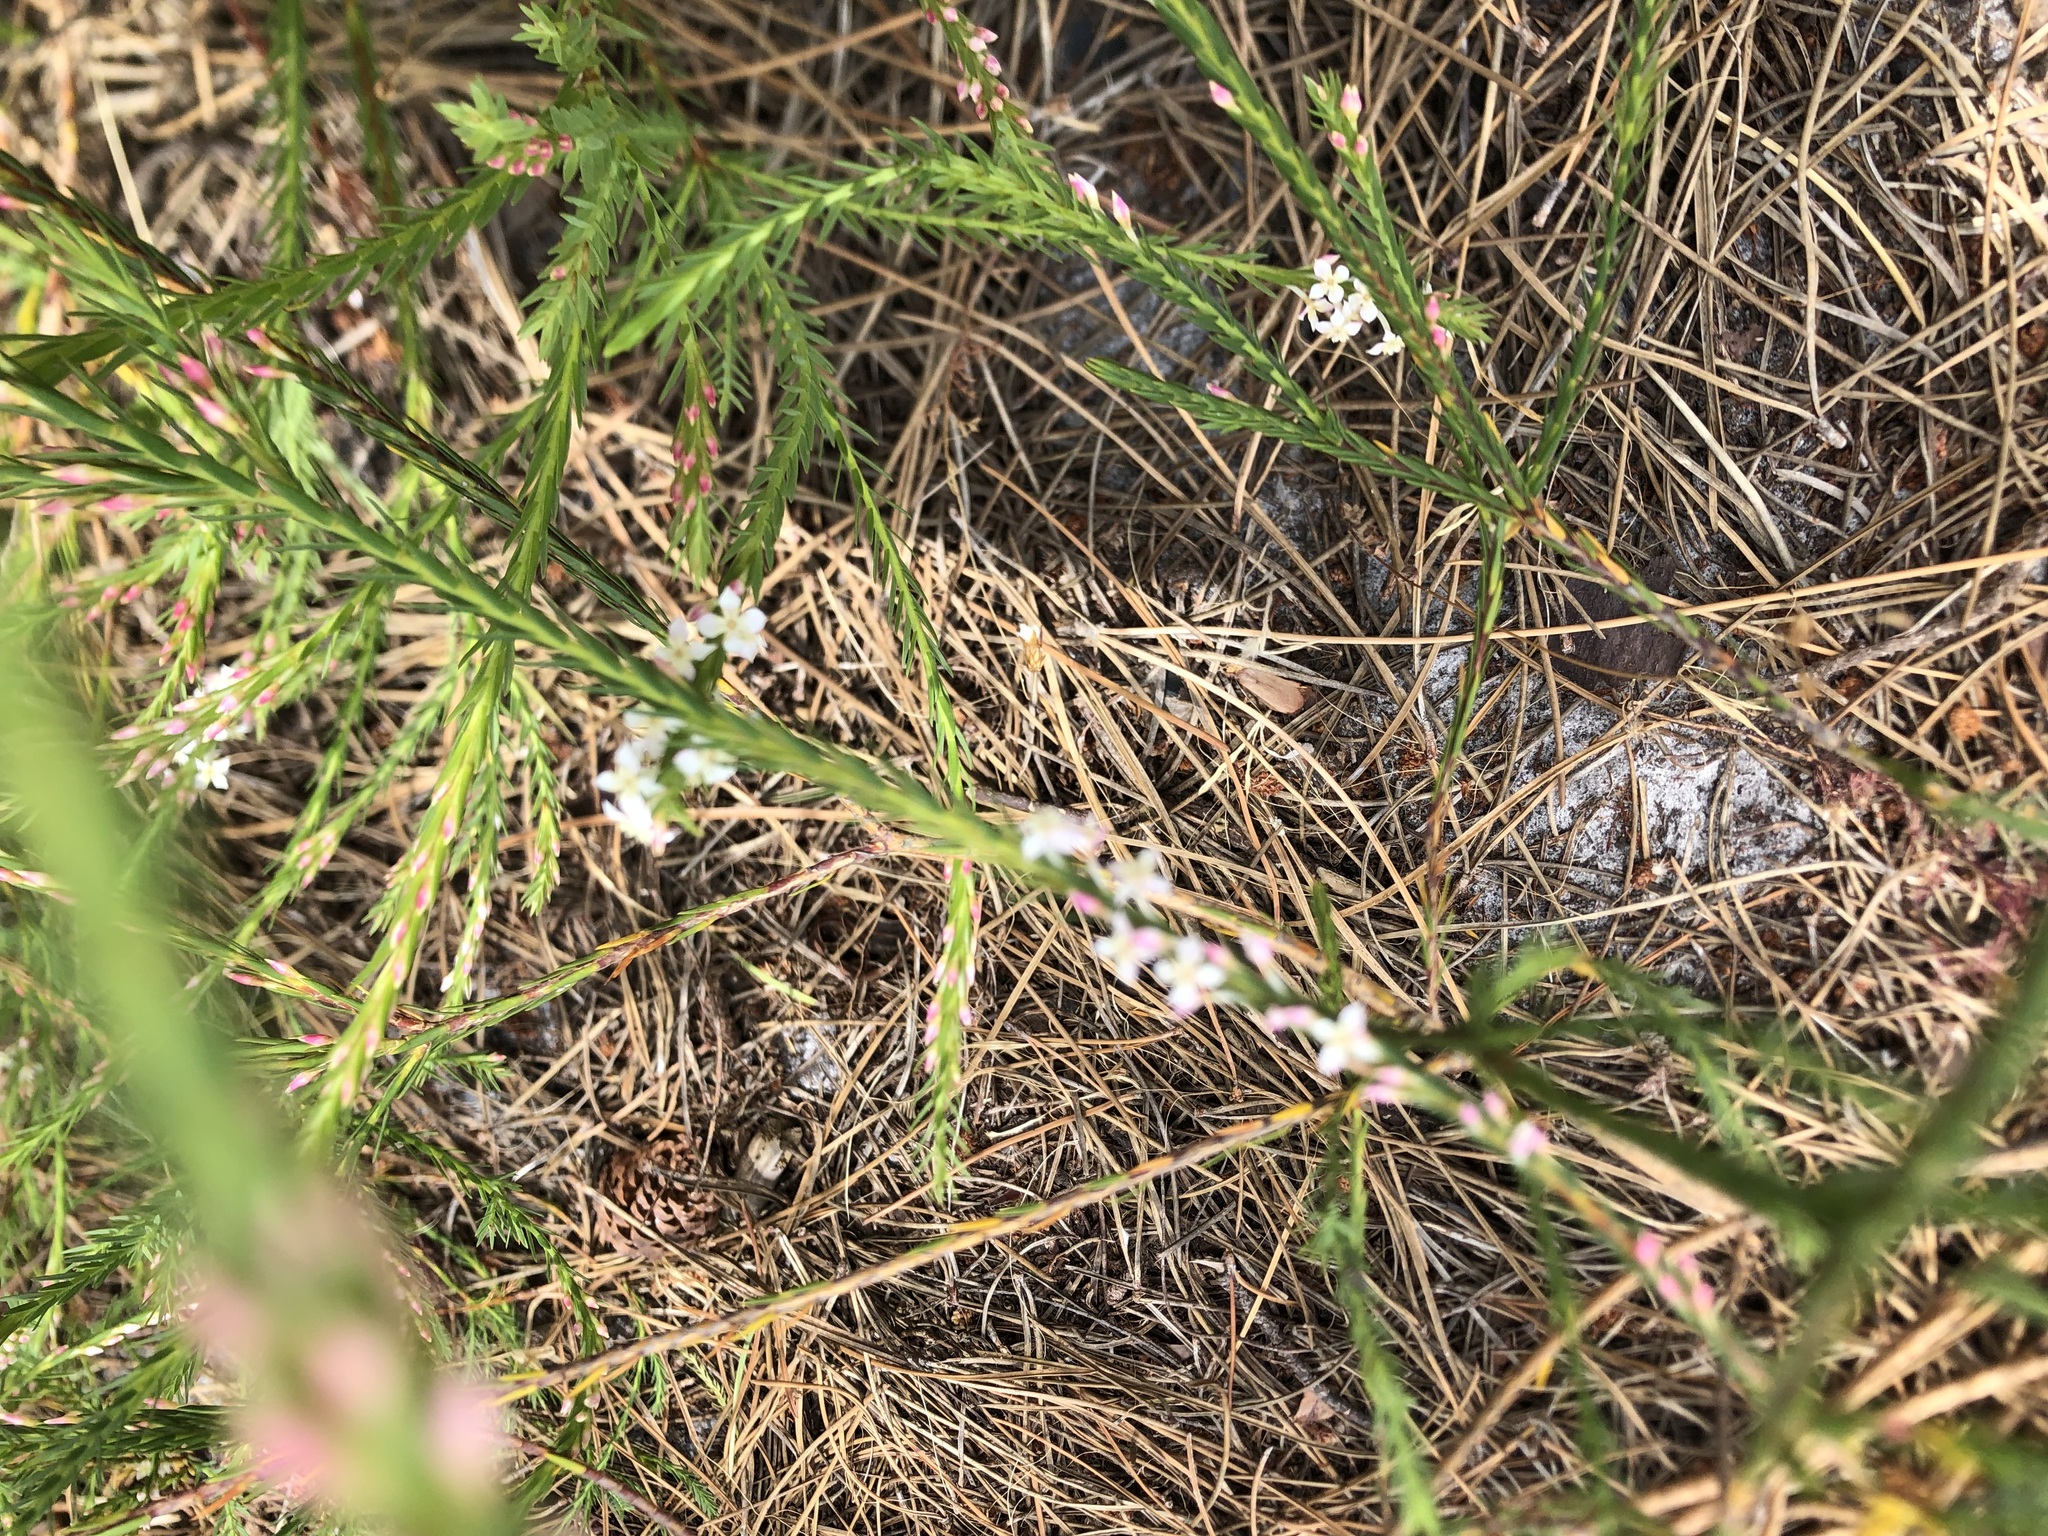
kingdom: Plantae
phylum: Tracheophyta
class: Magnoliopsida
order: Malvales
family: Thymelaeaceae
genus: Struthiola
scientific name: Struthiola dodecandra
